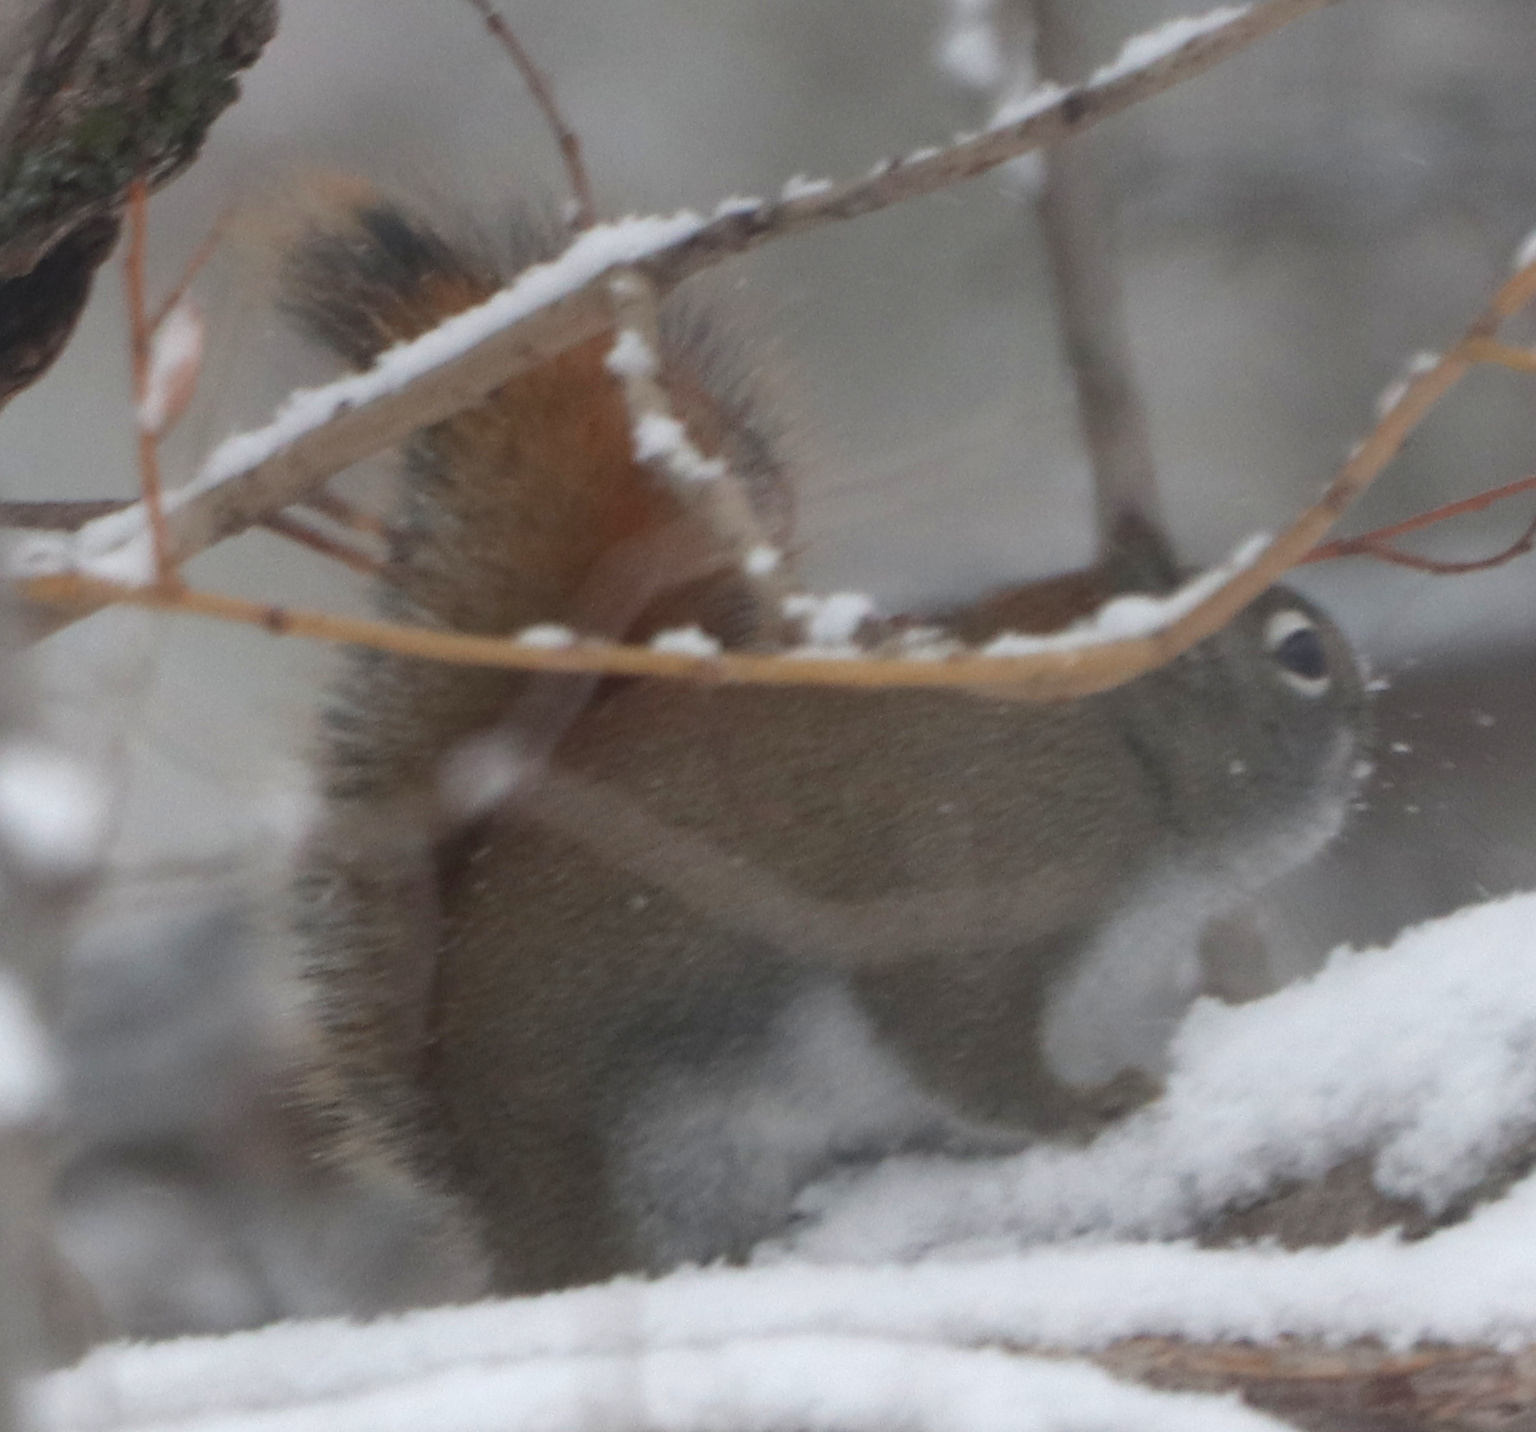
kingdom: Animalia
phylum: Chordata
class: Mammalia
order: Rodentia
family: Sciuridae
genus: Tamiasciurus
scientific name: Tamiasciurus hudsonicus
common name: Red squirrel
